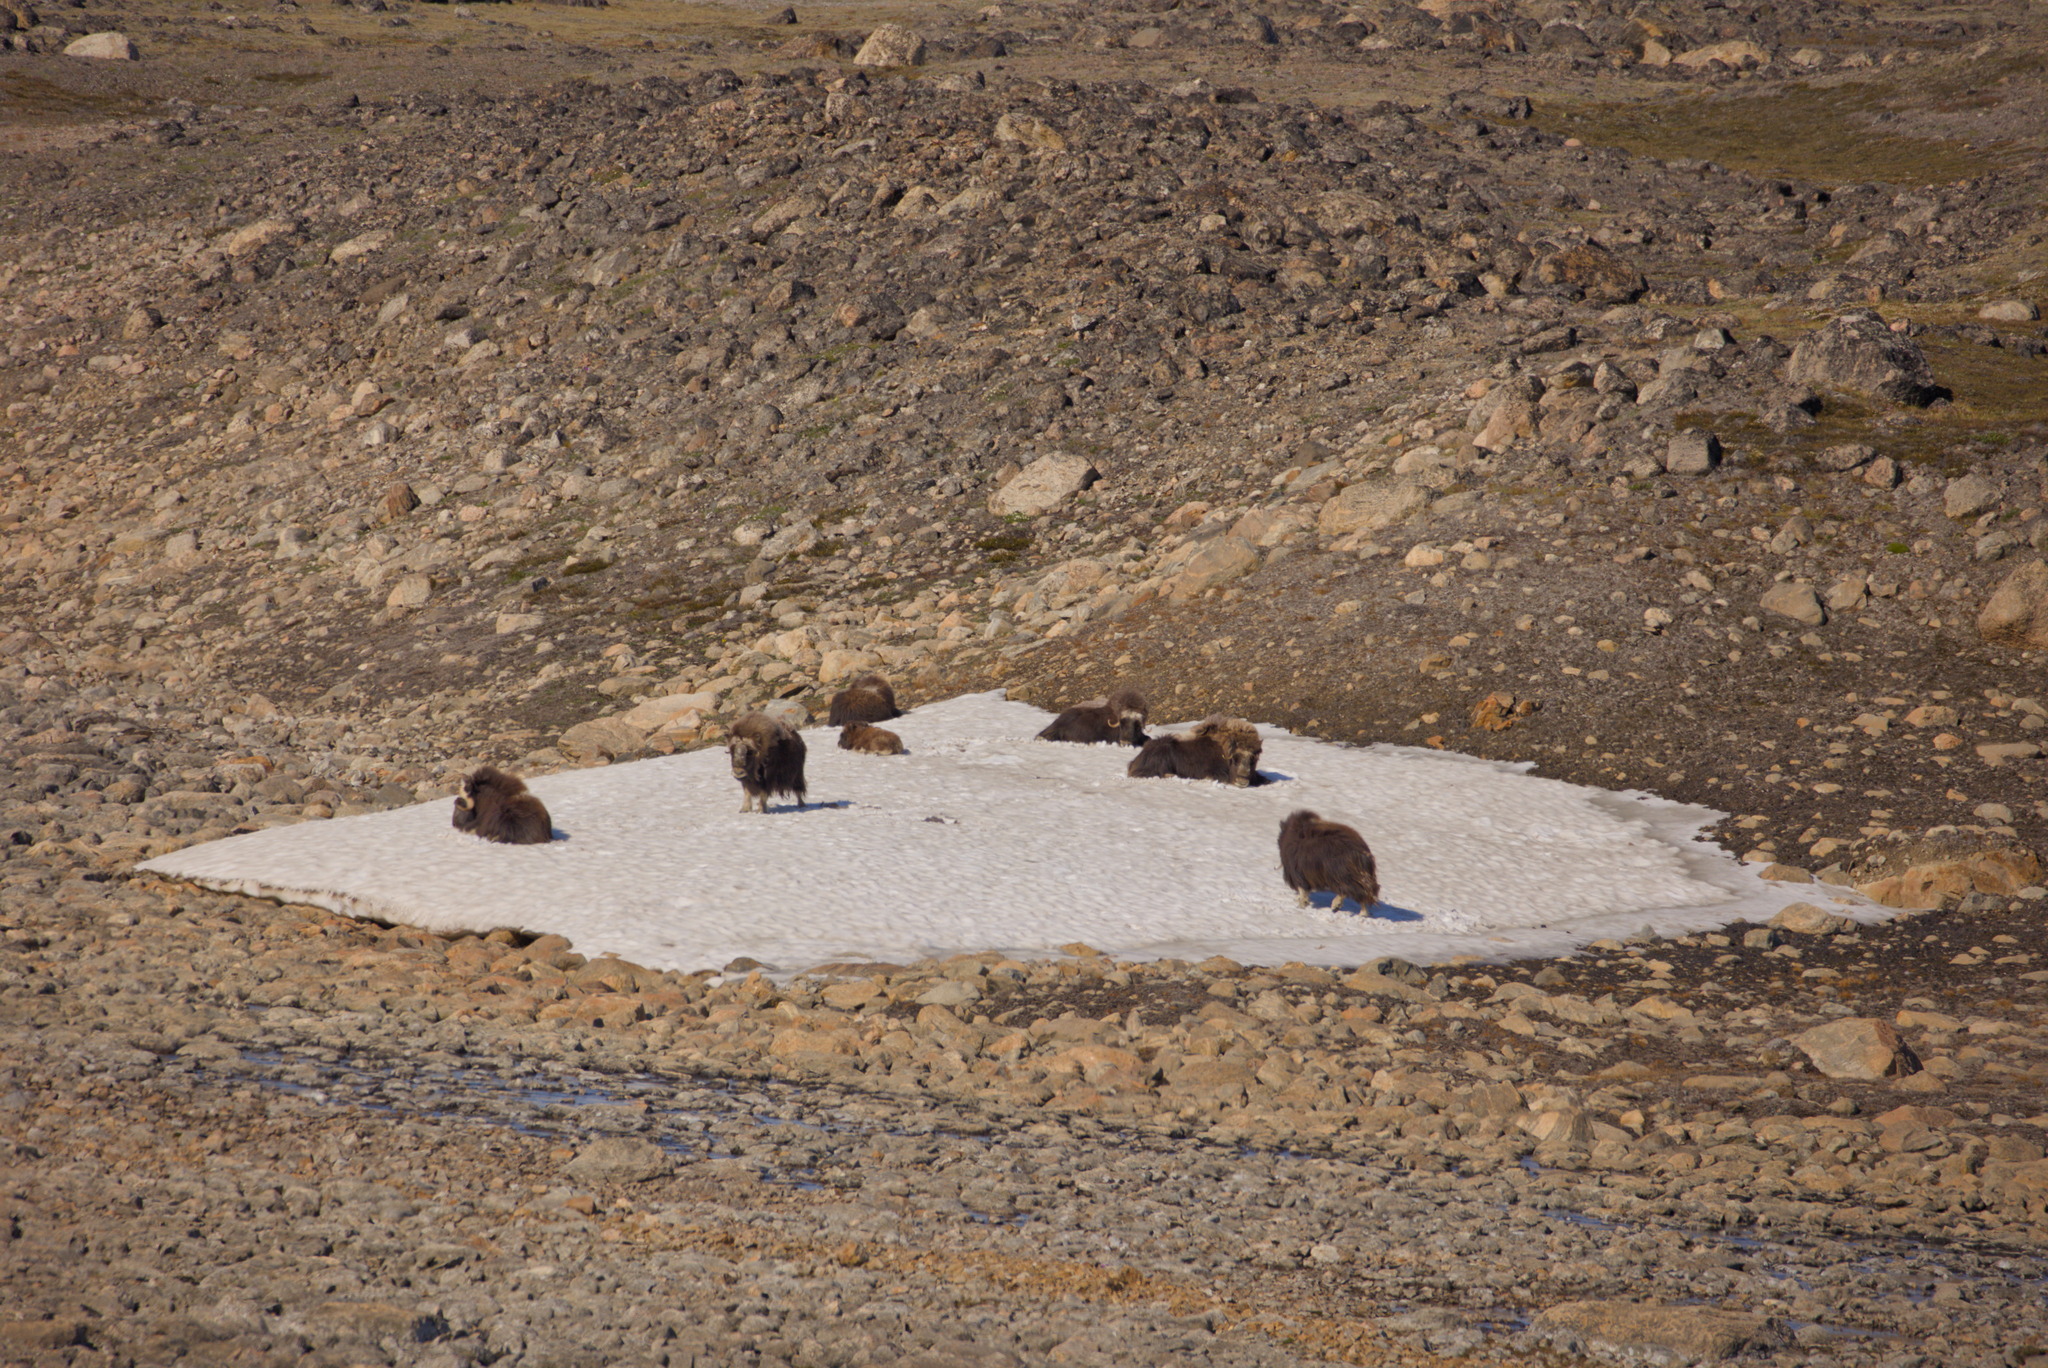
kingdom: Animalia
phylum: Chordata
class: Mammalia
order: Artiodactyla
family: Bovidae
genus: Ovibos
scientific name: Ovibos moschatus
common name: Muskox
